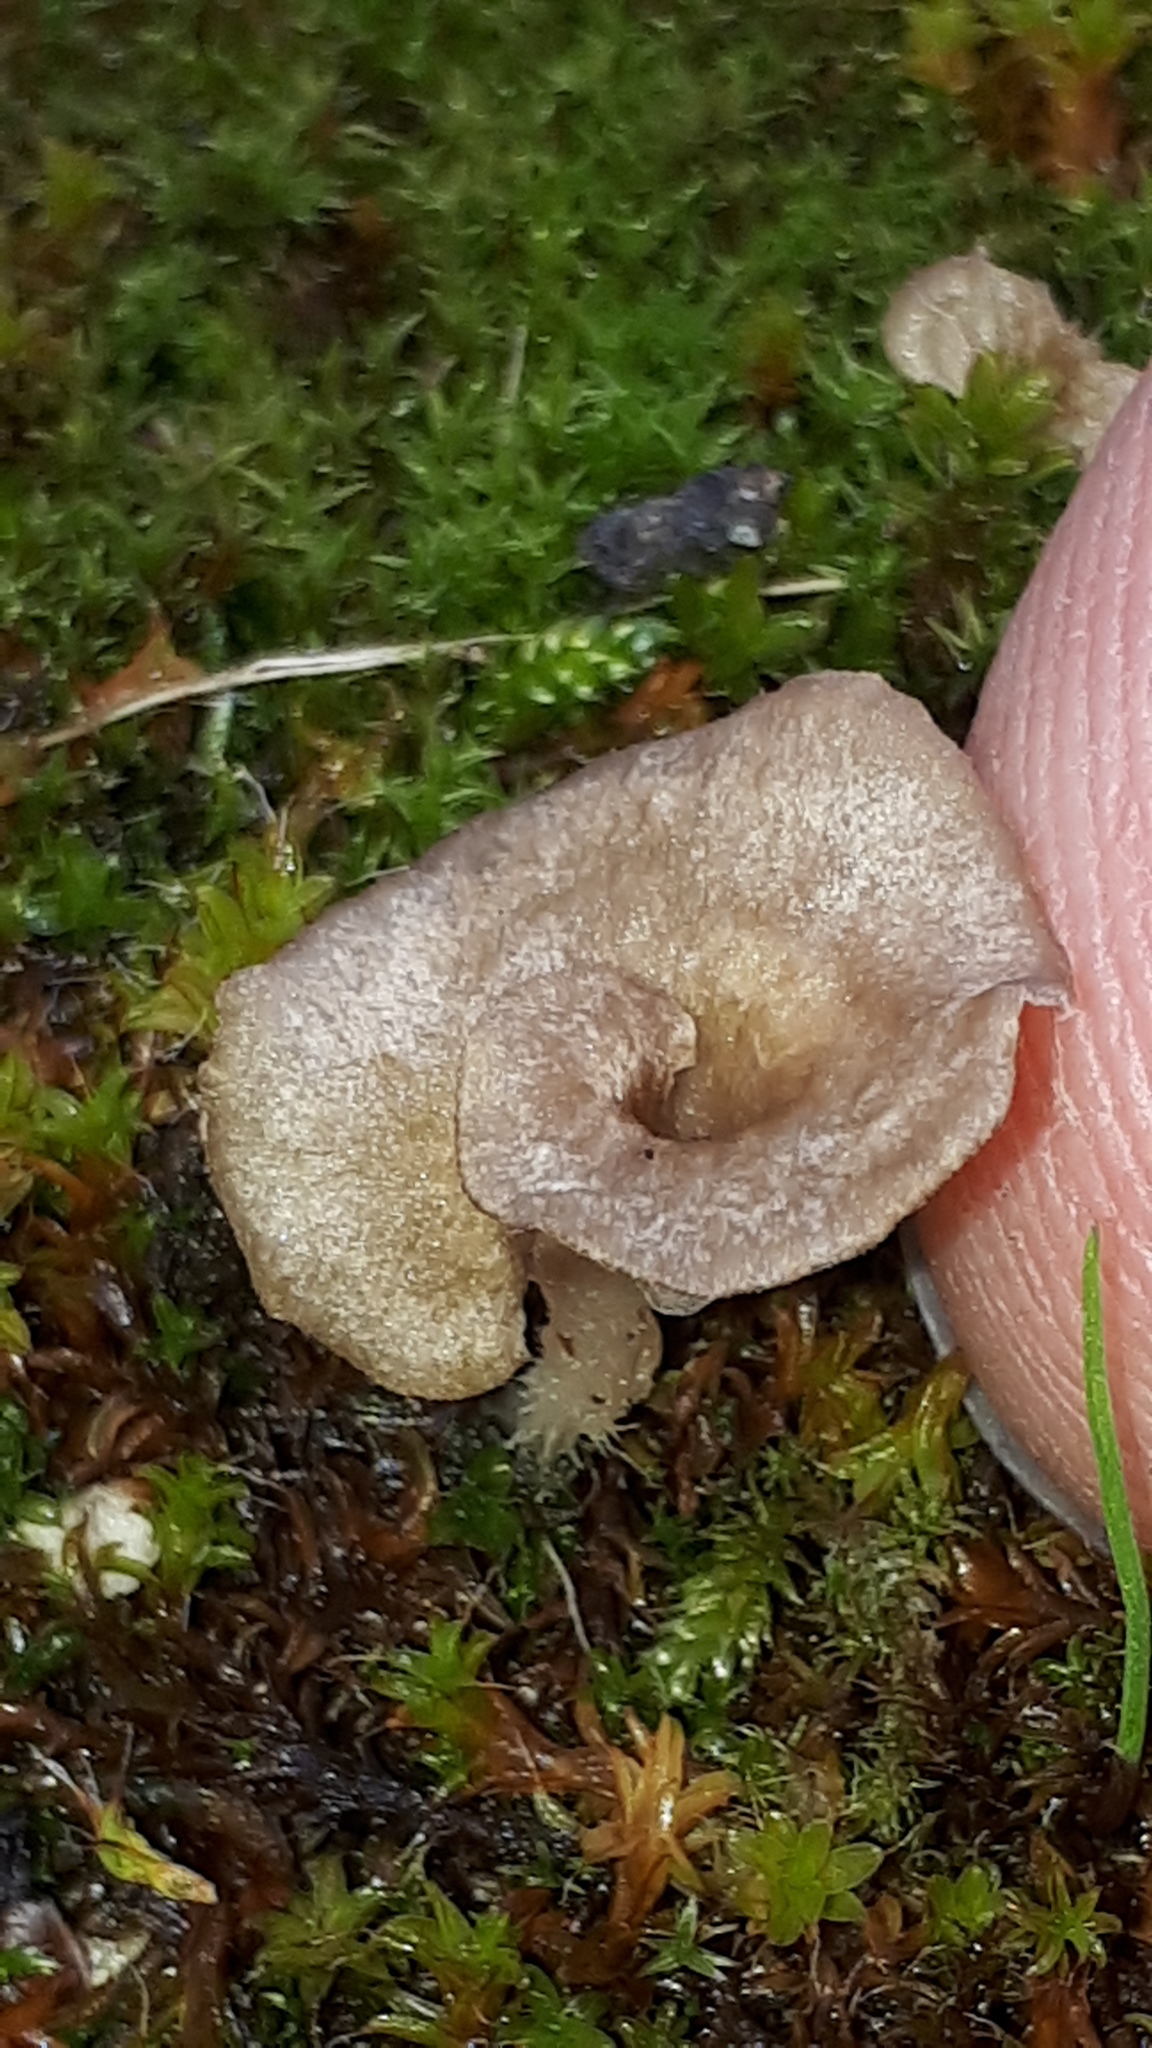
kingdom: Fungi
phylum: Basidiomycota
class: Agaricomycetes
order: Agaricales
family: Hygrophoraceae
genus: Arrhenia
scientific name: Arrhenia spathulata
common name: Spatulate oysterling
